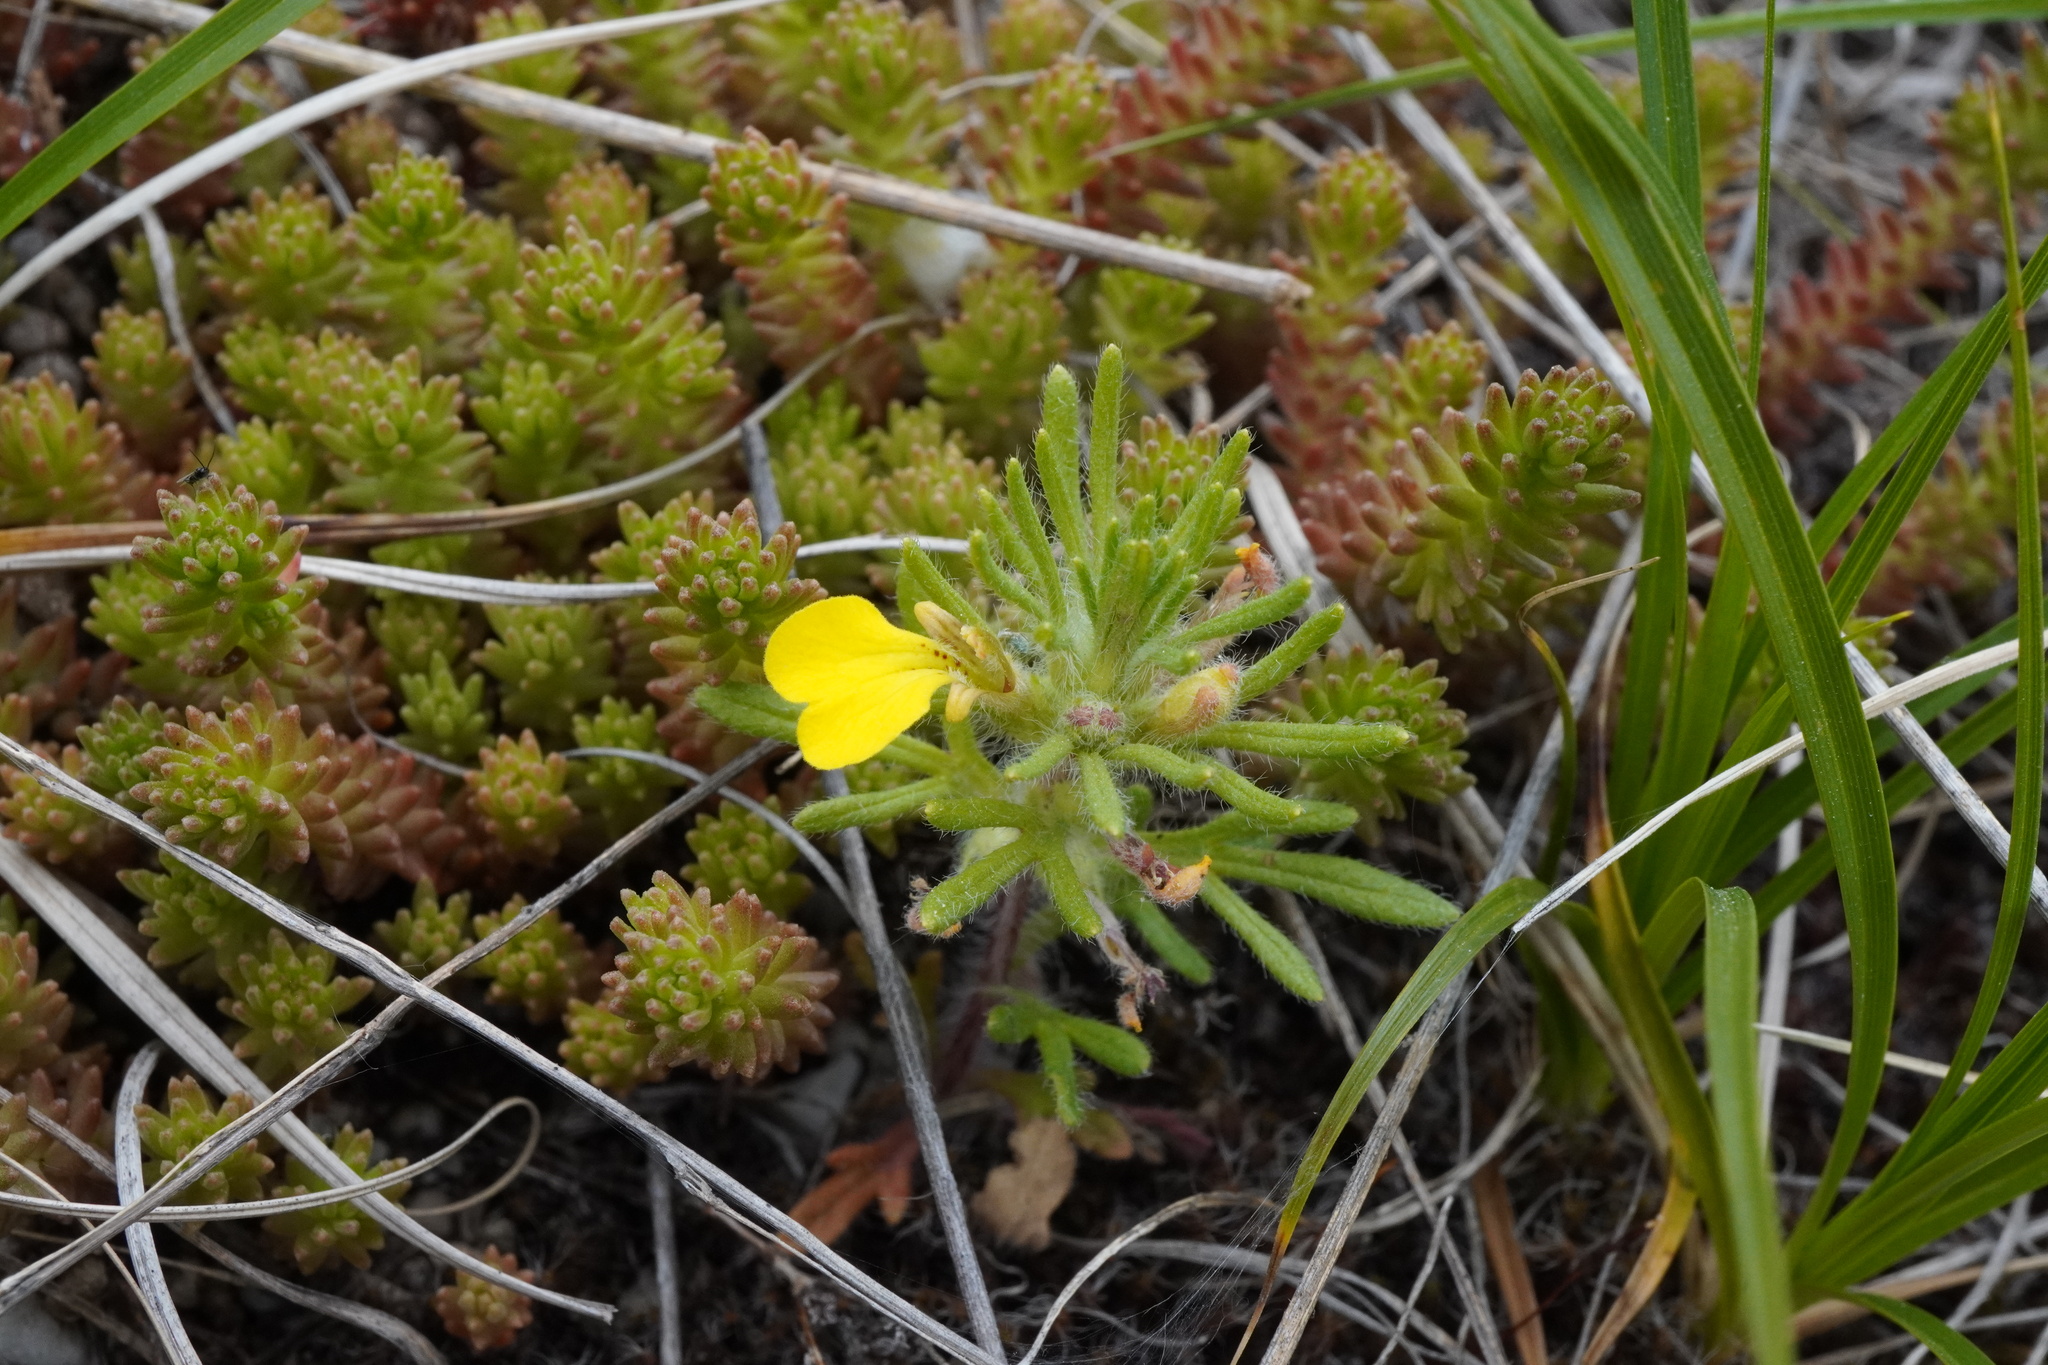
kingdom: Plantae
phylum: Tracheophyta
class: Magnoliopsida
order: Lamiales
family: Lamiaceae
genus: Ajuga
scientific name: Ajuga chamaepitys
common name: Ground-pine
